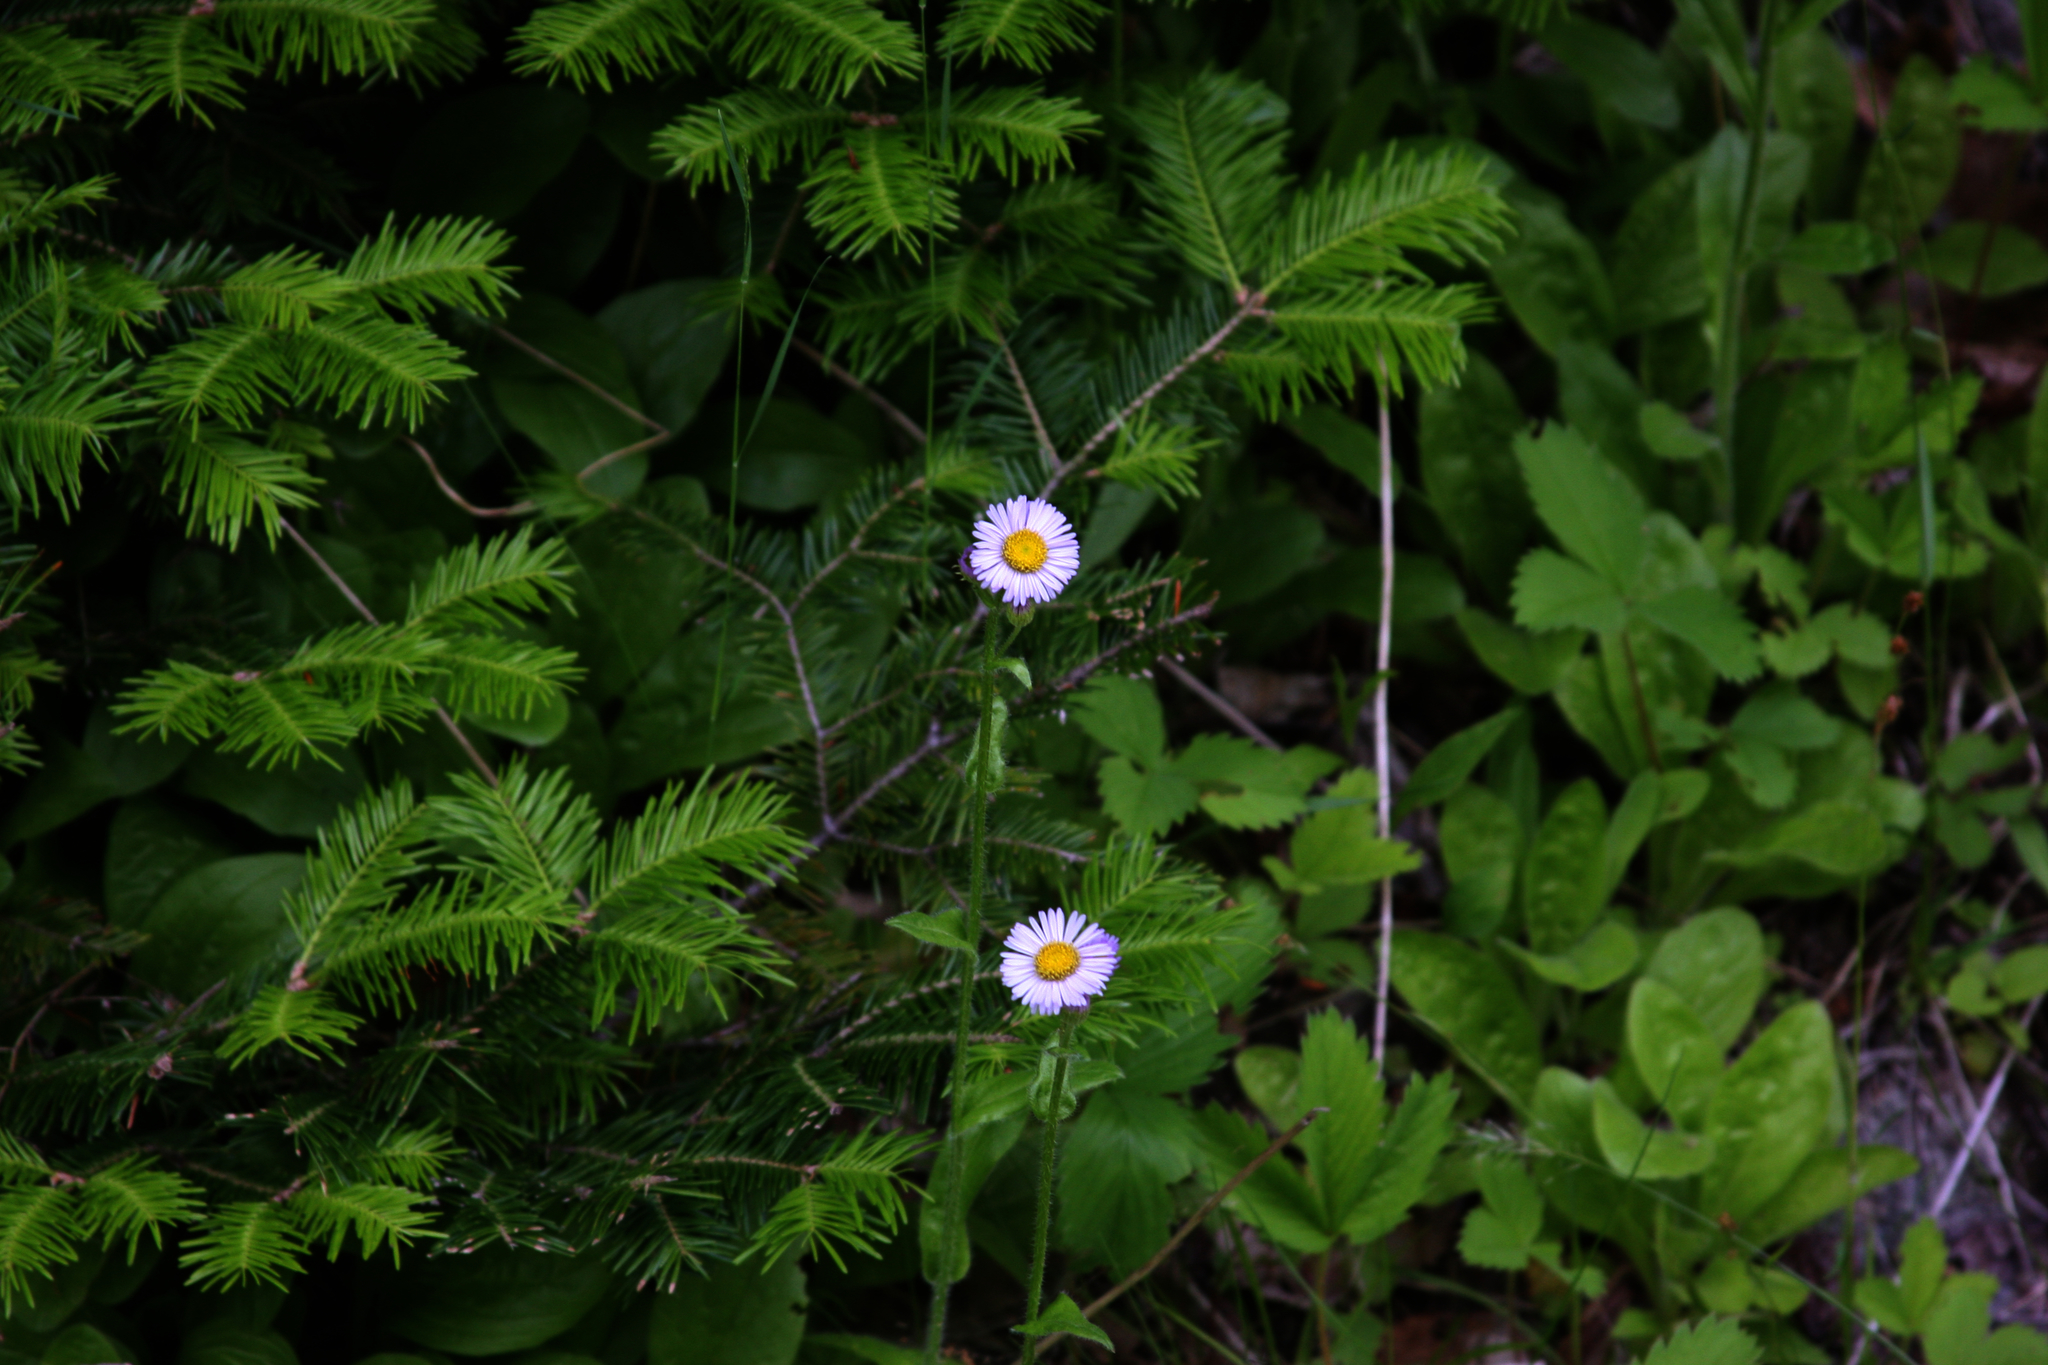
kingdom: Plantae
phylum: Tracheophyta
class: Pinopsida
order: Pinales
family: Pinaceae
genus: Abies
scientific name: Abies balsamea
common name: Balsam fir
